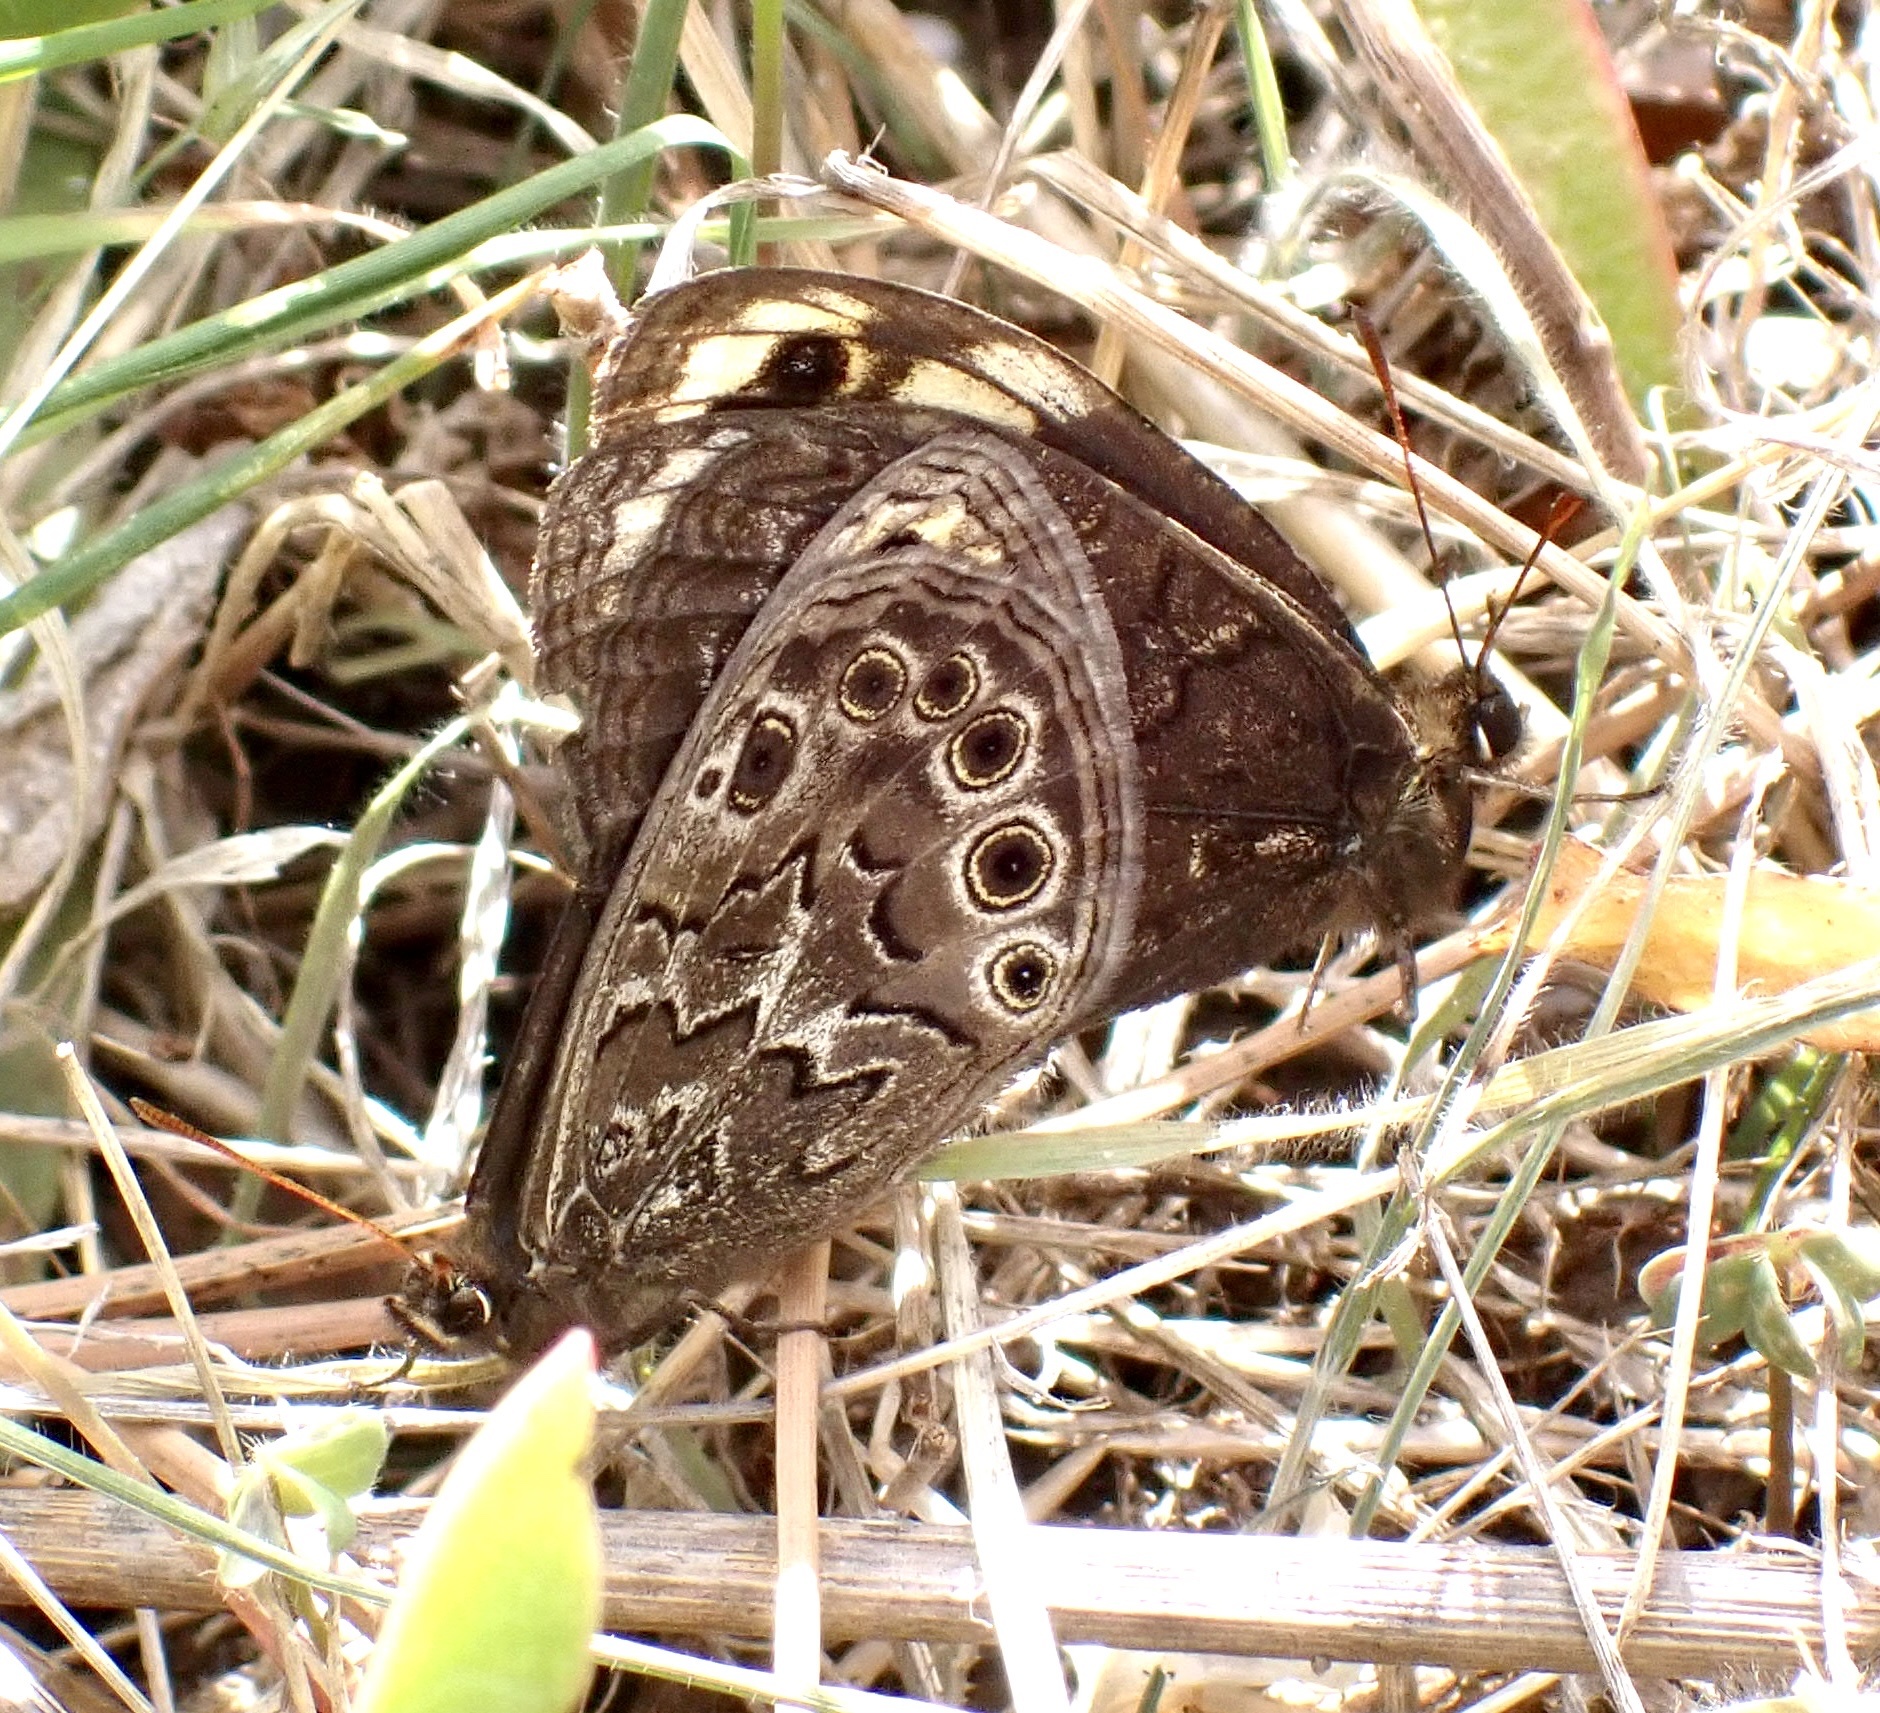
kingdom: Animalia
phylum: Arthropoda
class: Insecta
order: Lepidoptera
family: Nymphalidae
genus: Dira
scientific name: Dira clytus
